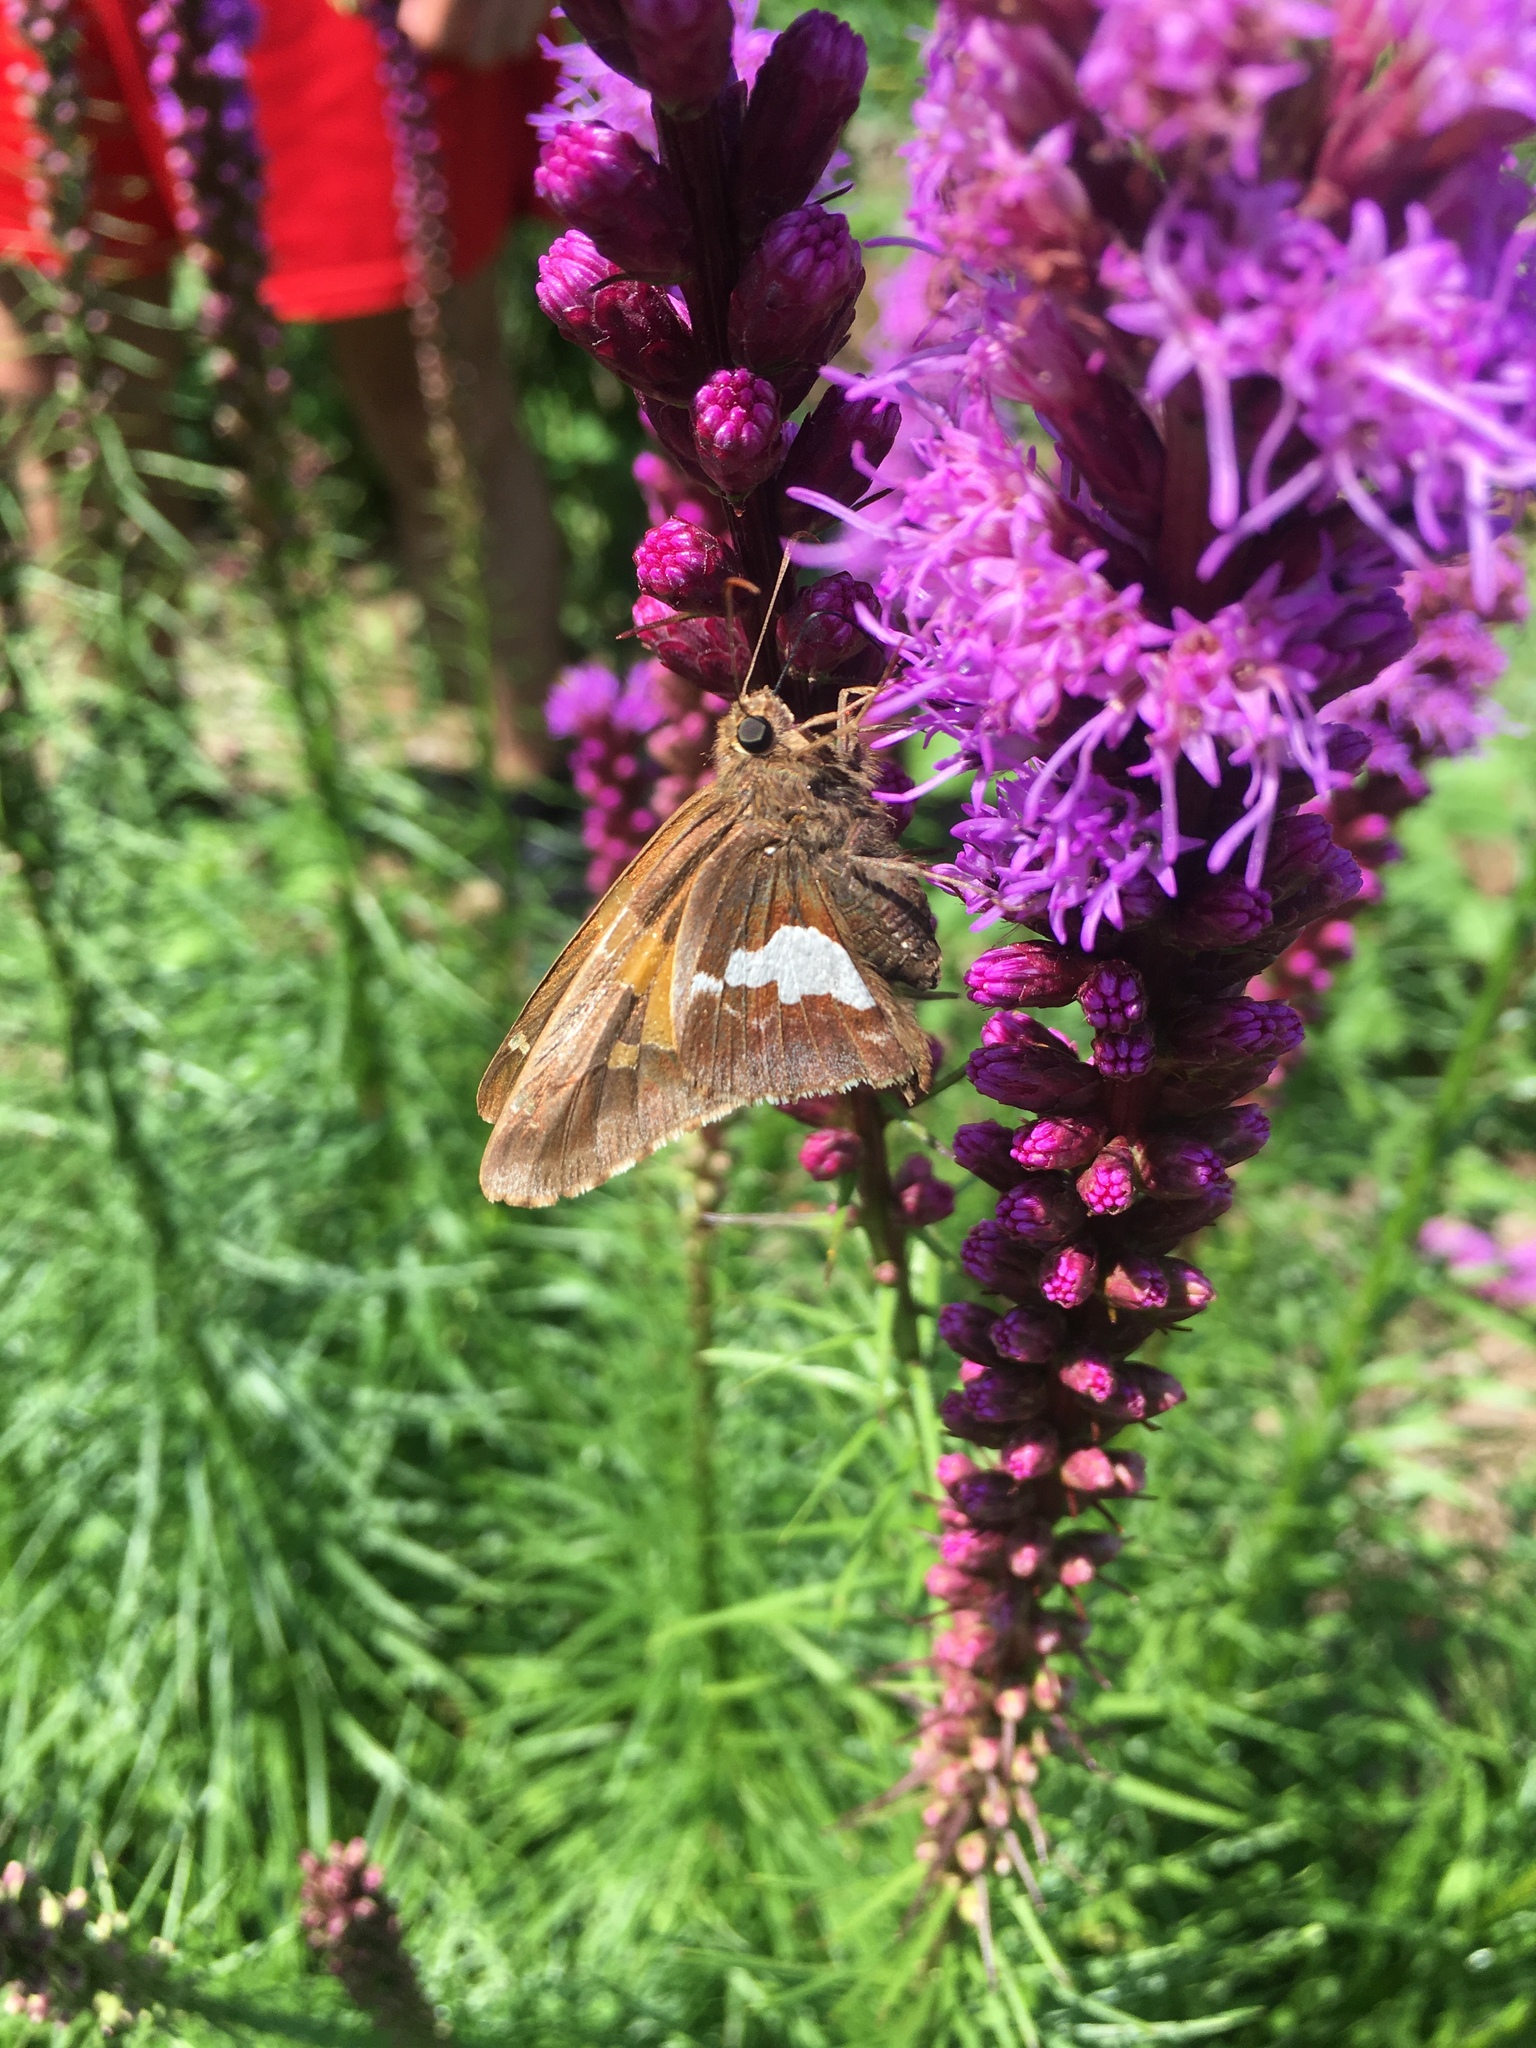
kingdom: Animalia
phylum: Arthropoda
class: Insecta
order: Lepidoptera
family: Hesperiidae
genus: Epargyreus
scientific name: Epargyreus clarus
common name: Silver-spotted skipper
